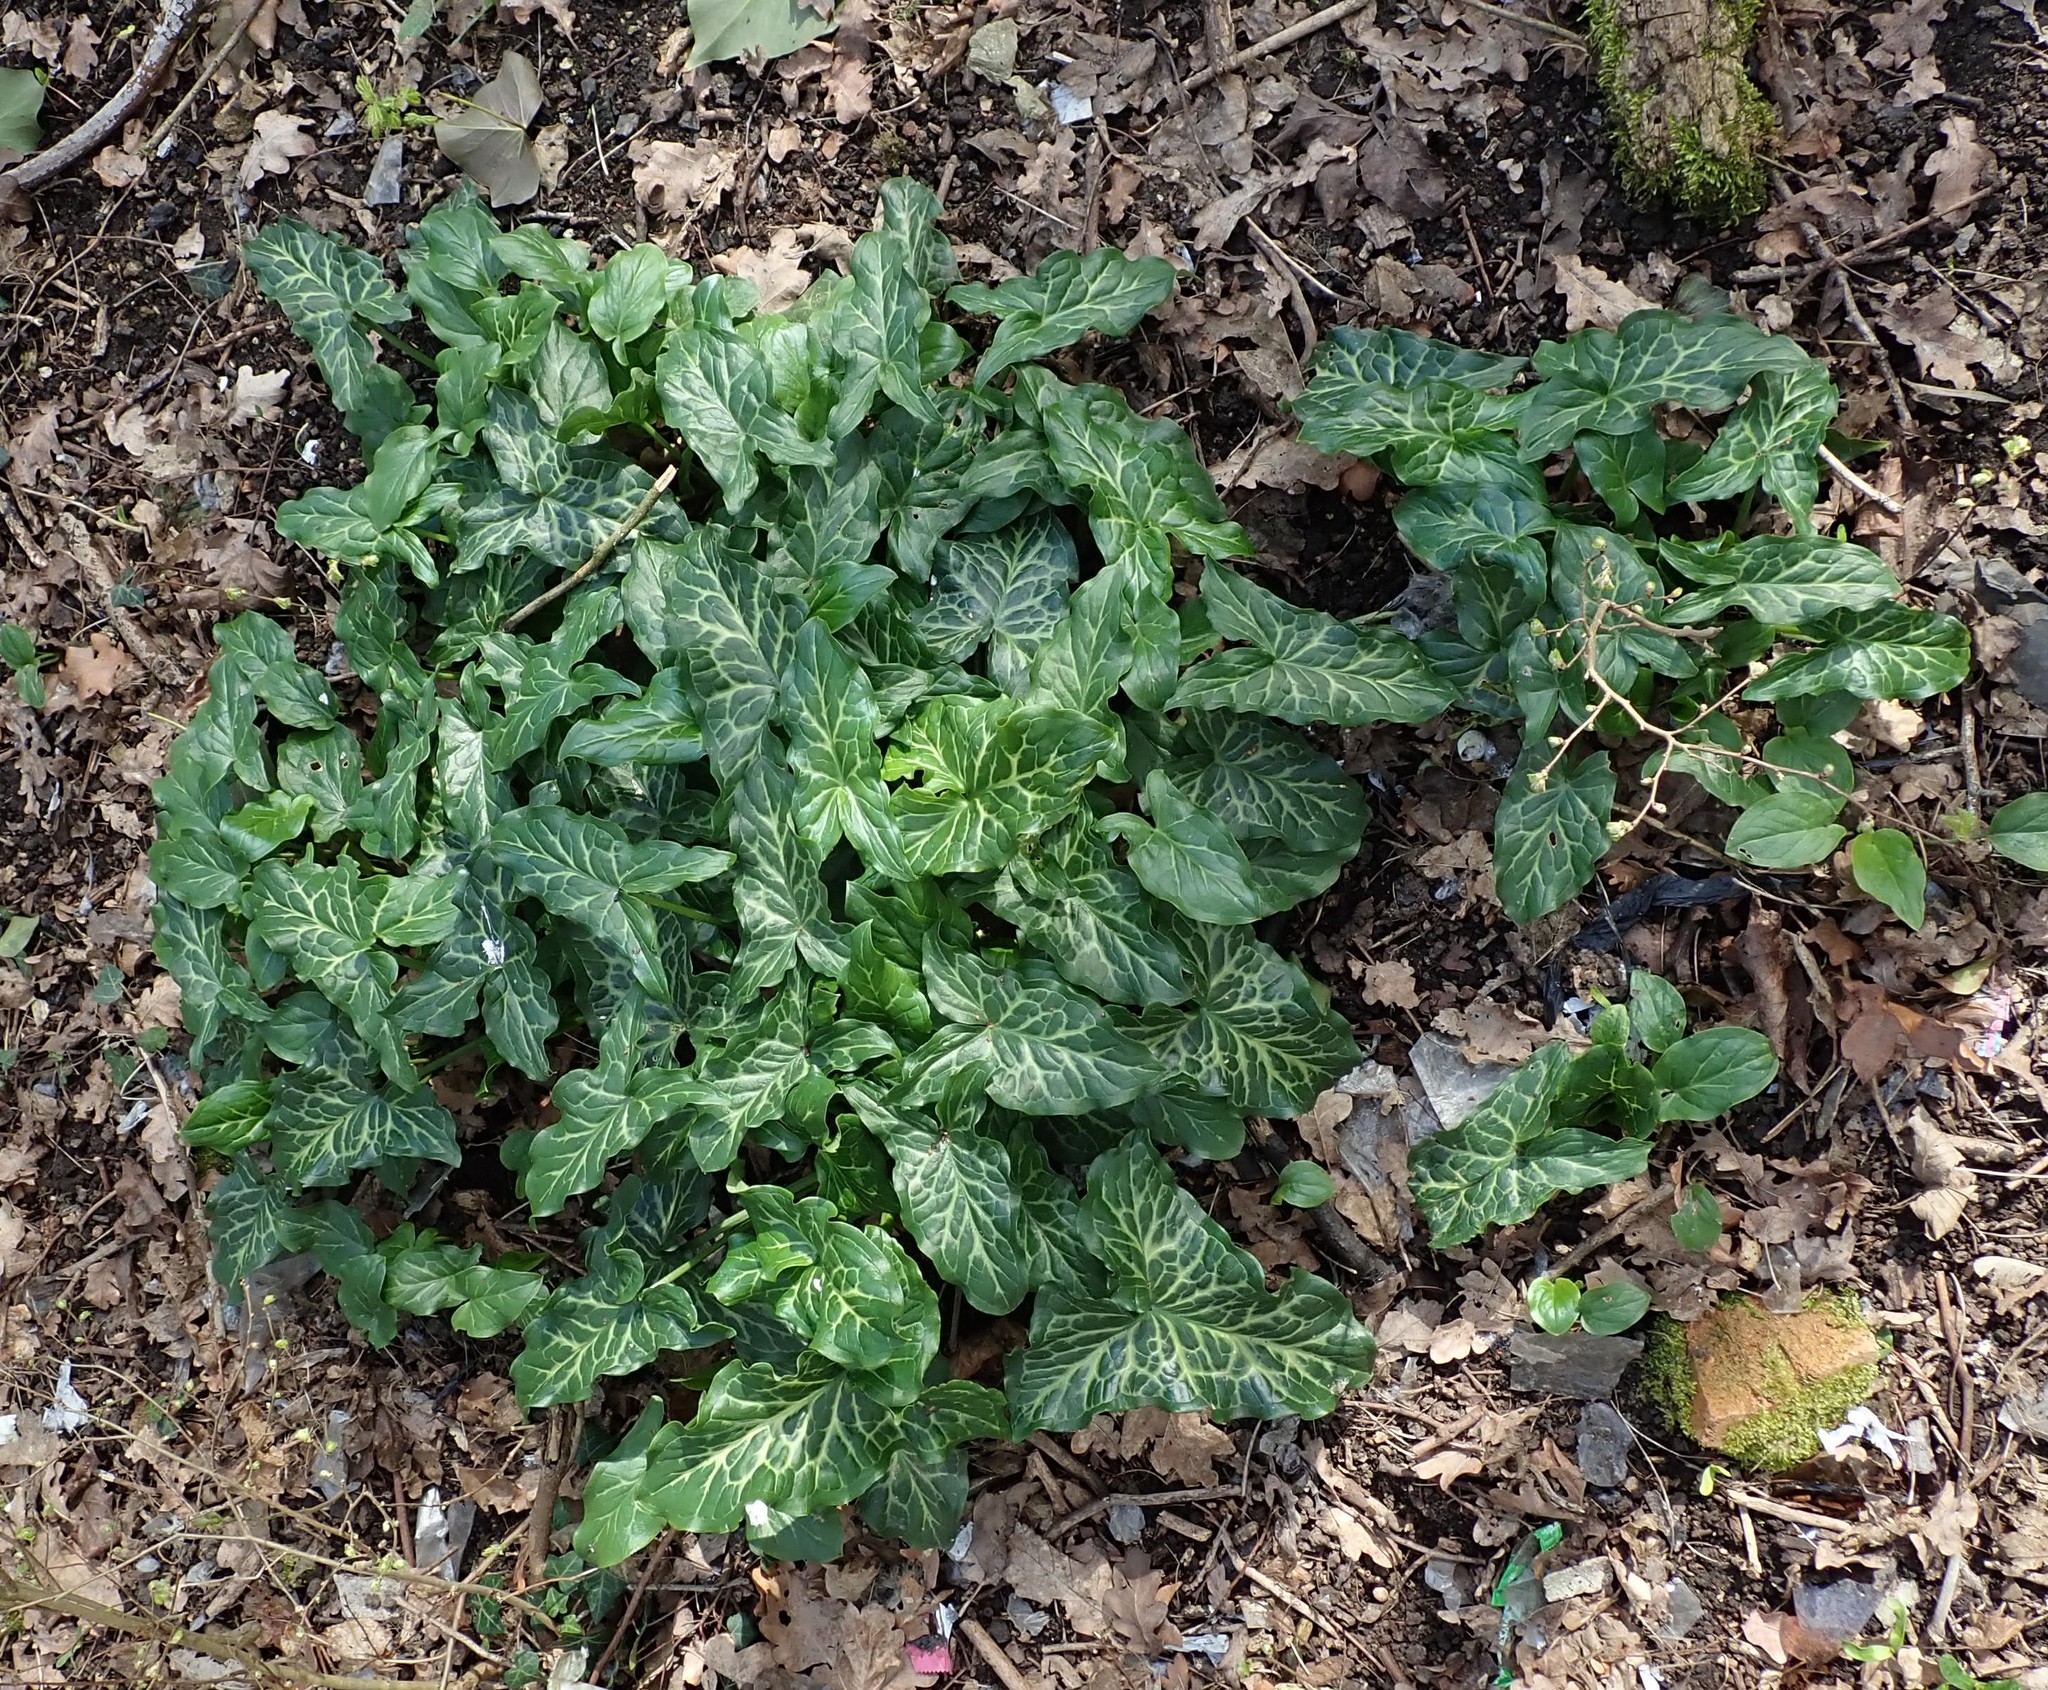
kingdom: Plantae
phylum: Tracheophyta
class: Liliopsida
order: Alismatales
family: Araceae
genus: Arum
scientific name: Arum italicum
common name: Italian lords-and-ladies
